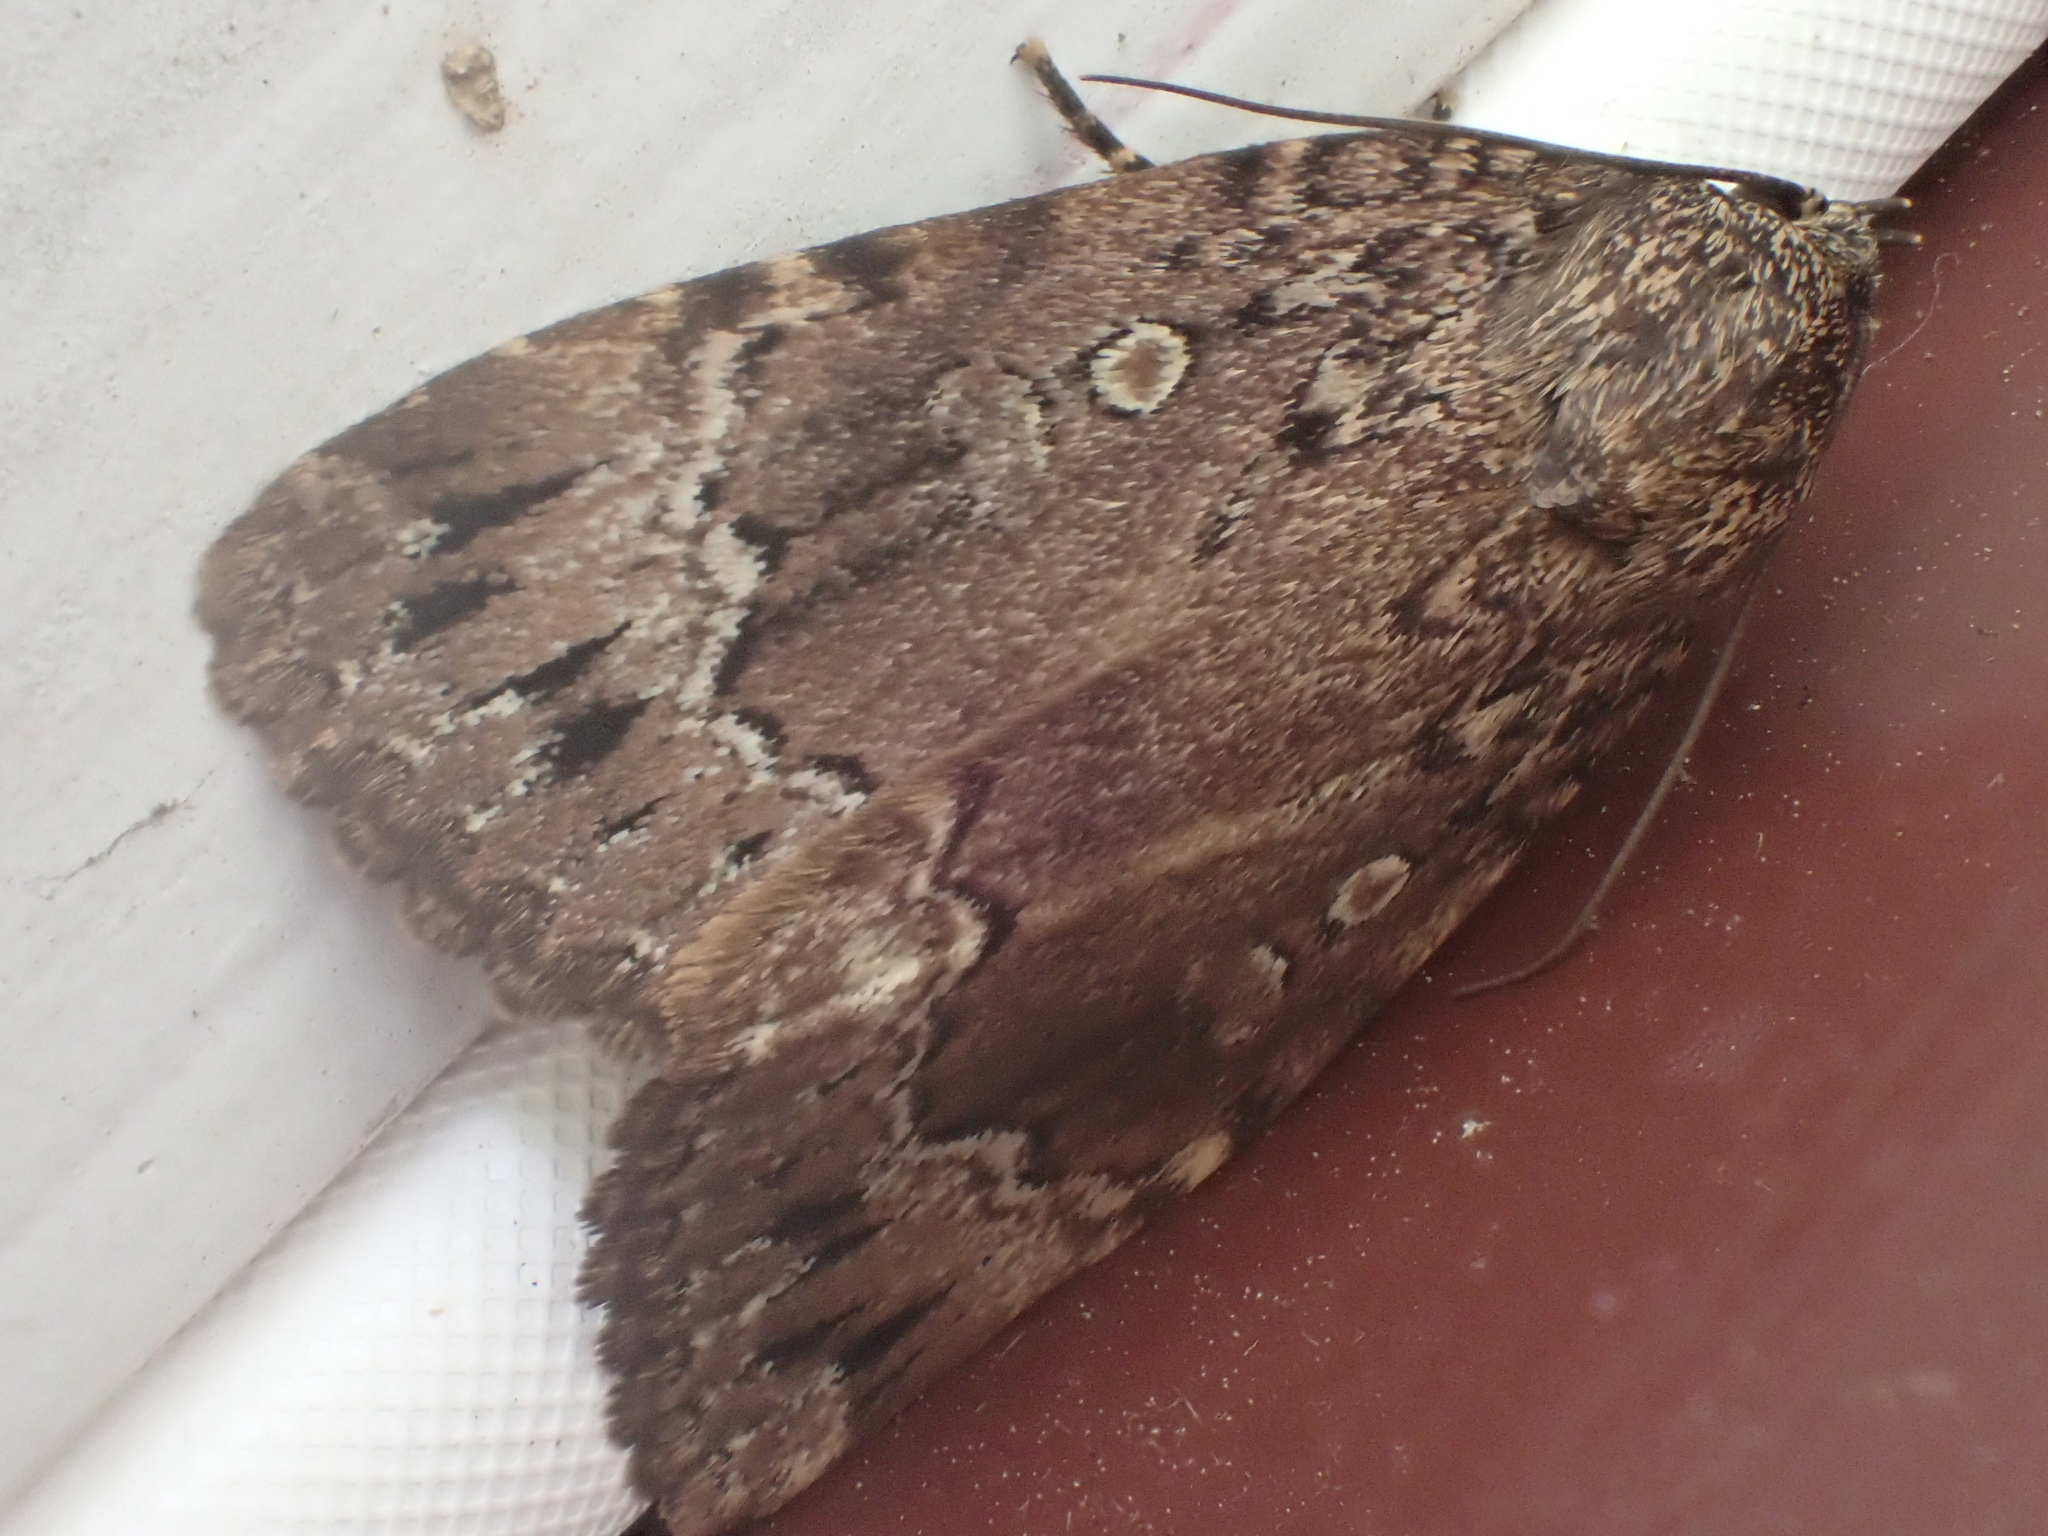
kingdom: Animalia
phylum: Arthropoda
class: Insecta
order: Lepidoptera
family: Noctuidae
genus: Amphipyra
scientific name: Amphipyra pyramidoides
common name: American copper underwing
